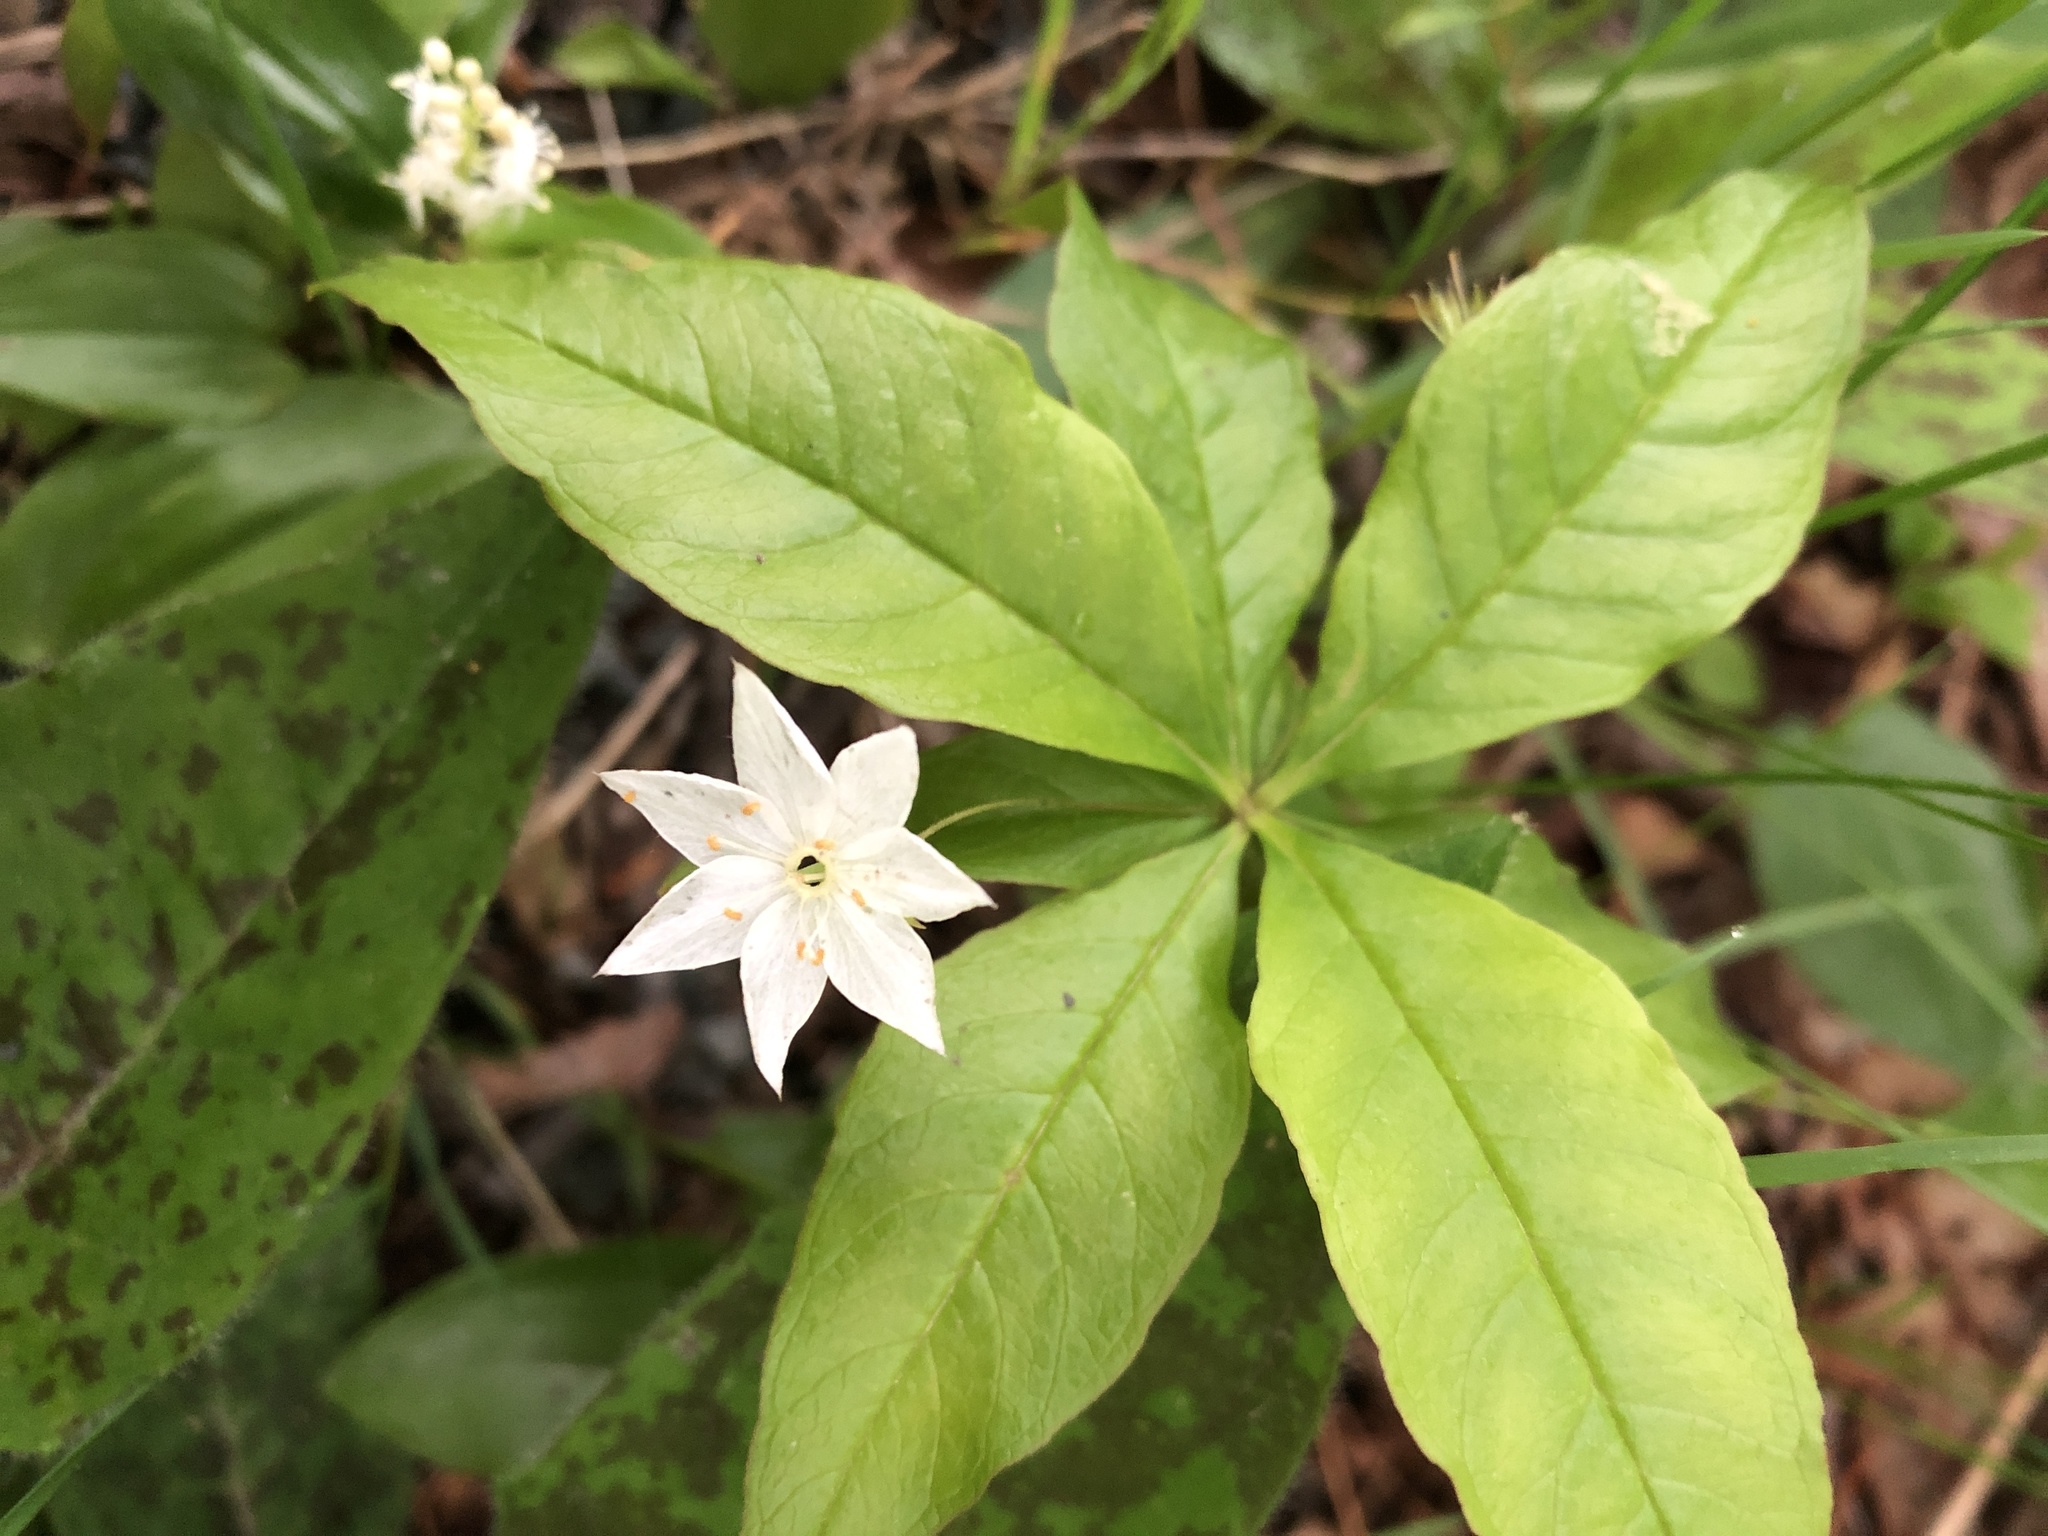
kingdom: Plantae
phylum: Tracheophyta
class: Magnoliopsida
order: Ericales
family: Primulaceae
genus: Lysimachia
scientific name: Lysimachia borealis
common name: American starflower
